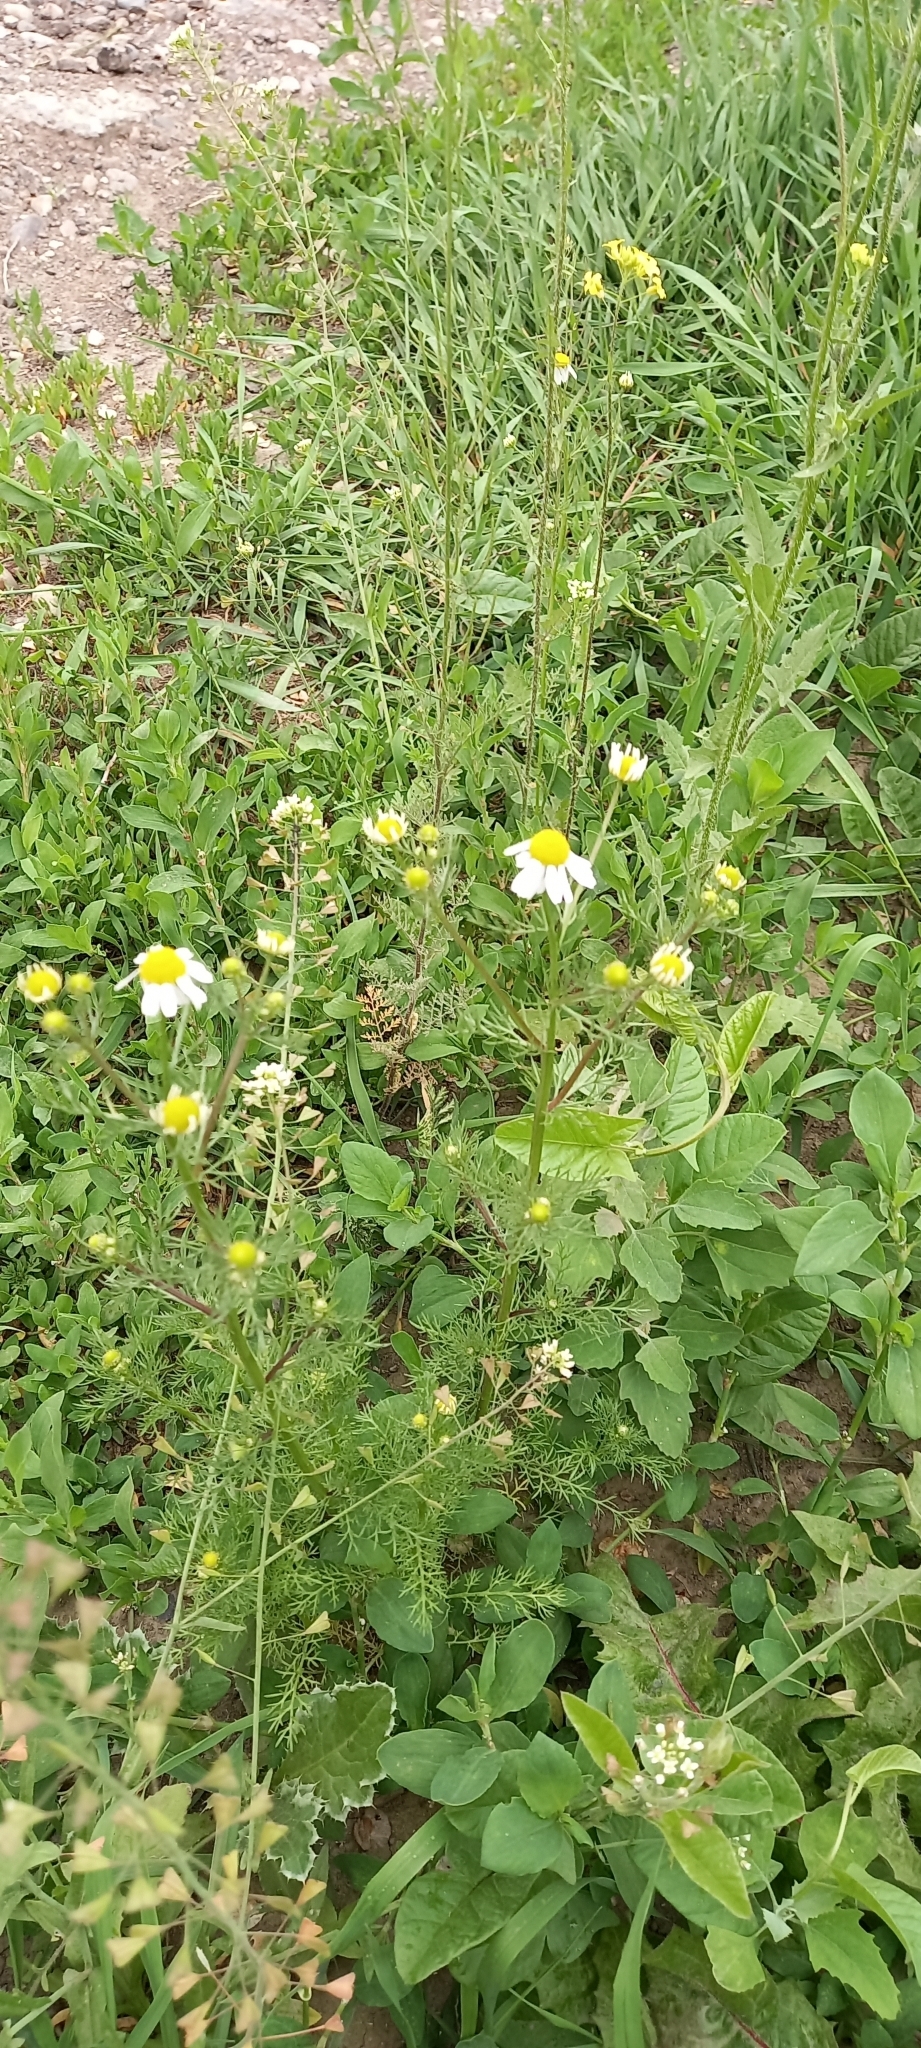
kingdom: Plantae
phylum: Tracheophyta
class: Magnoliopsida
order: Asterales
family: Asteraceae
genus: Matricaria
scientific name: Matricaria chamomilla
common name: Scented mayweed
